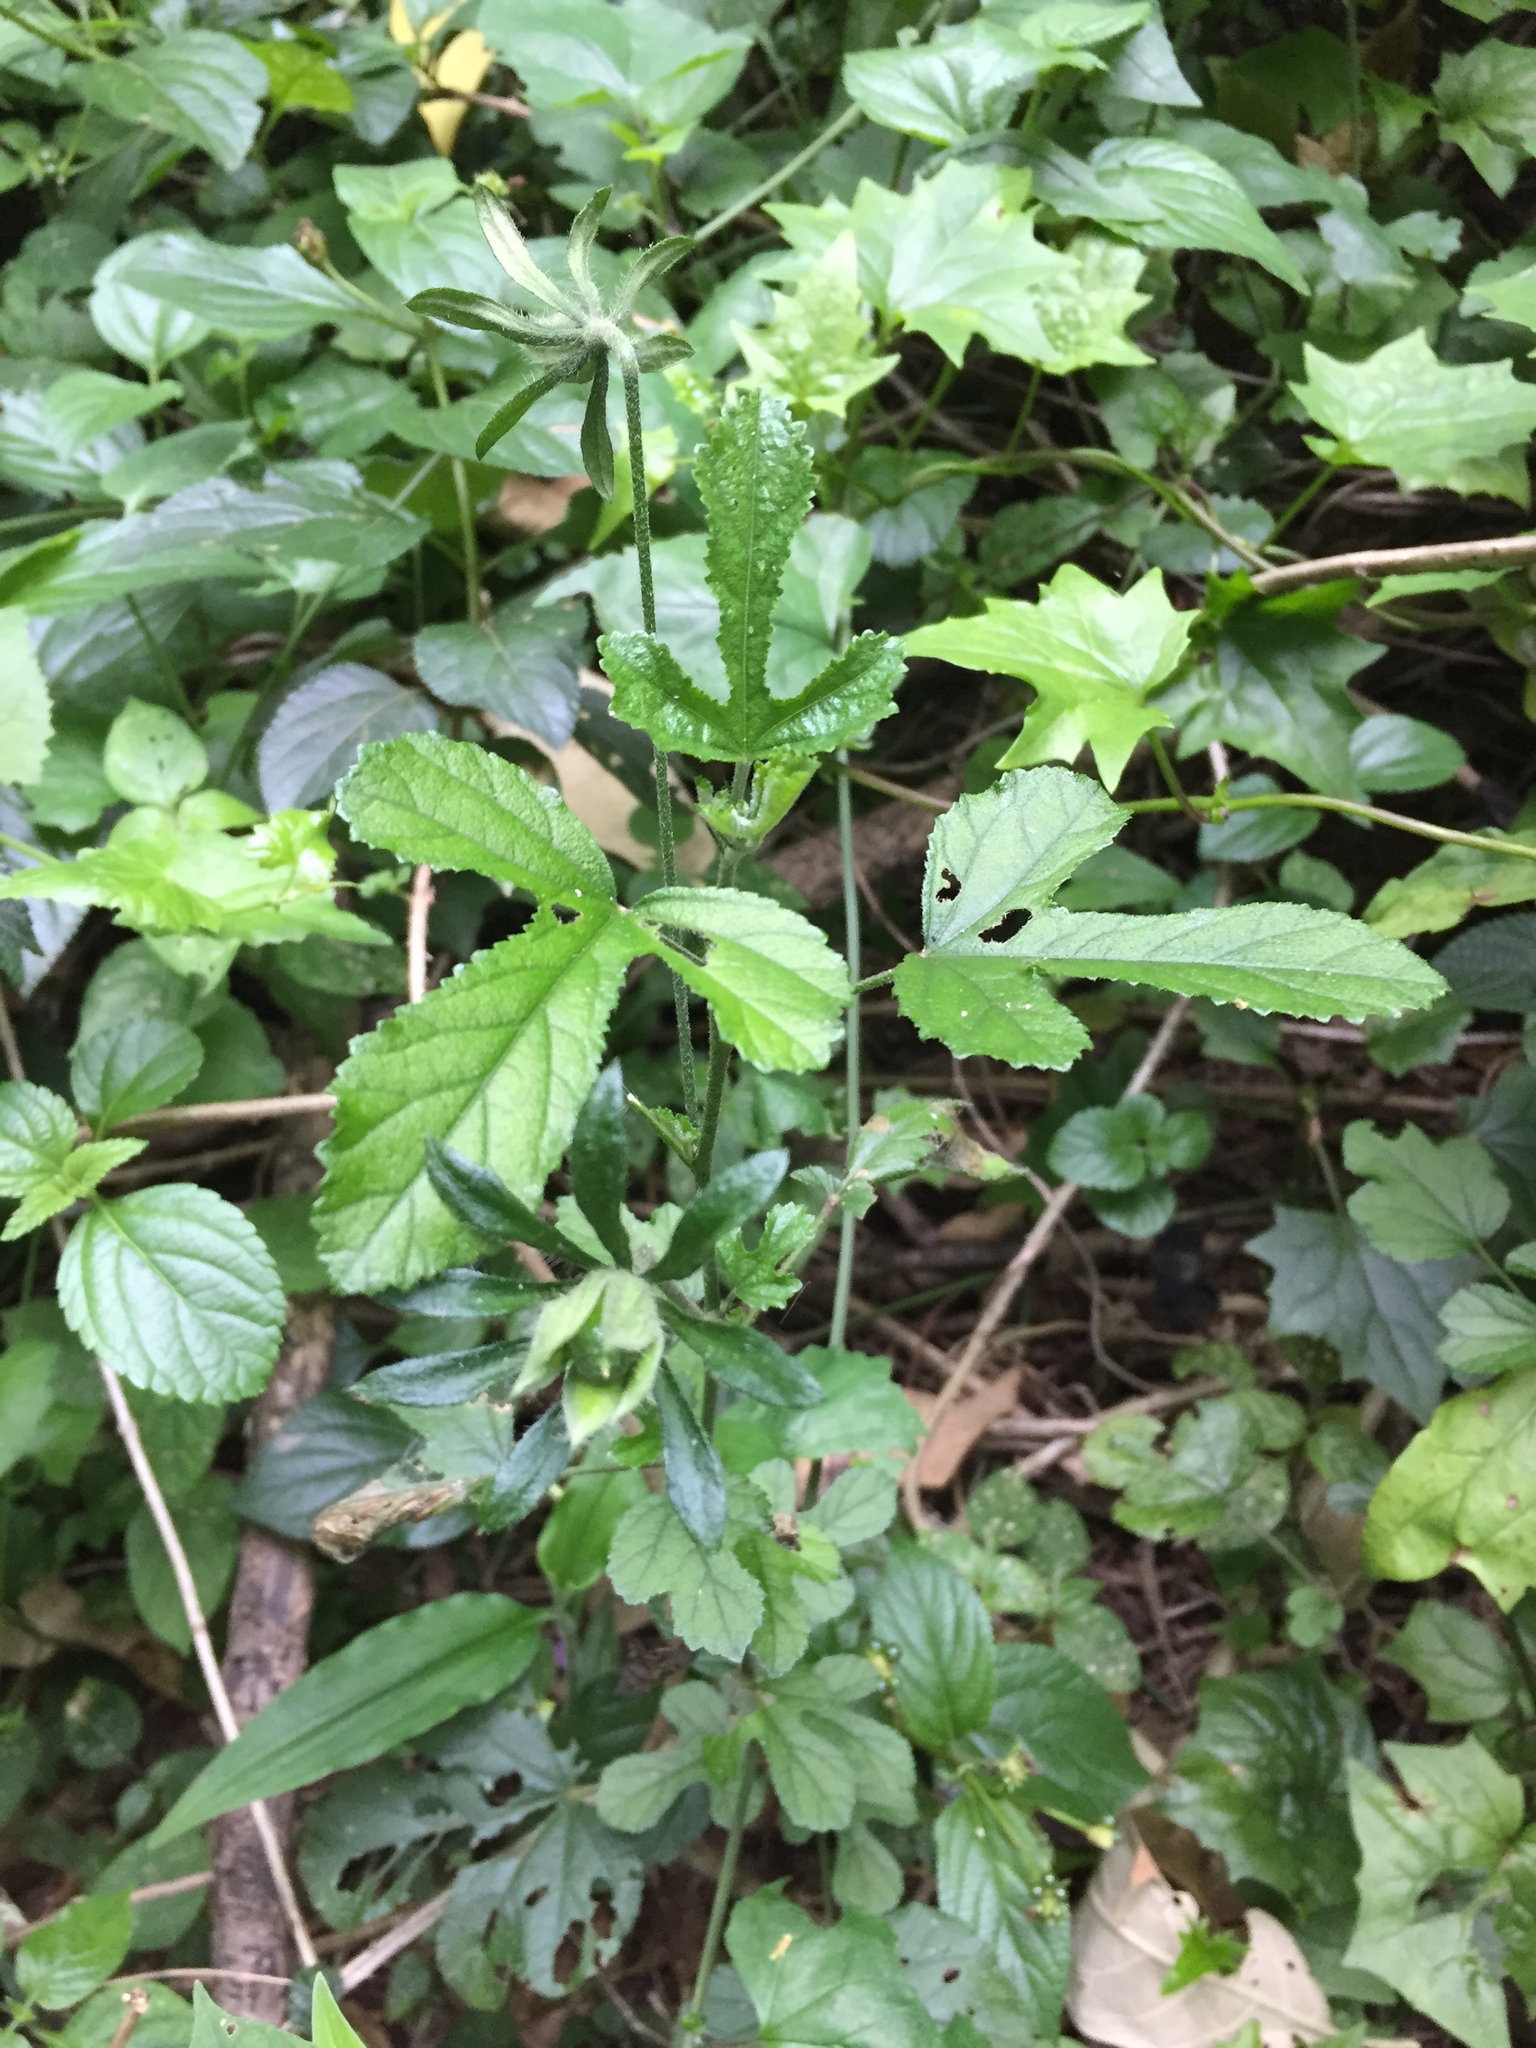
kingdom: Plantae
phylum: Tracheophyta
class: Magnoliopsida
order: Malvales
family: Malvaceae
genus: Hibiscus
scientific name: Hibiscus pedunculatus
